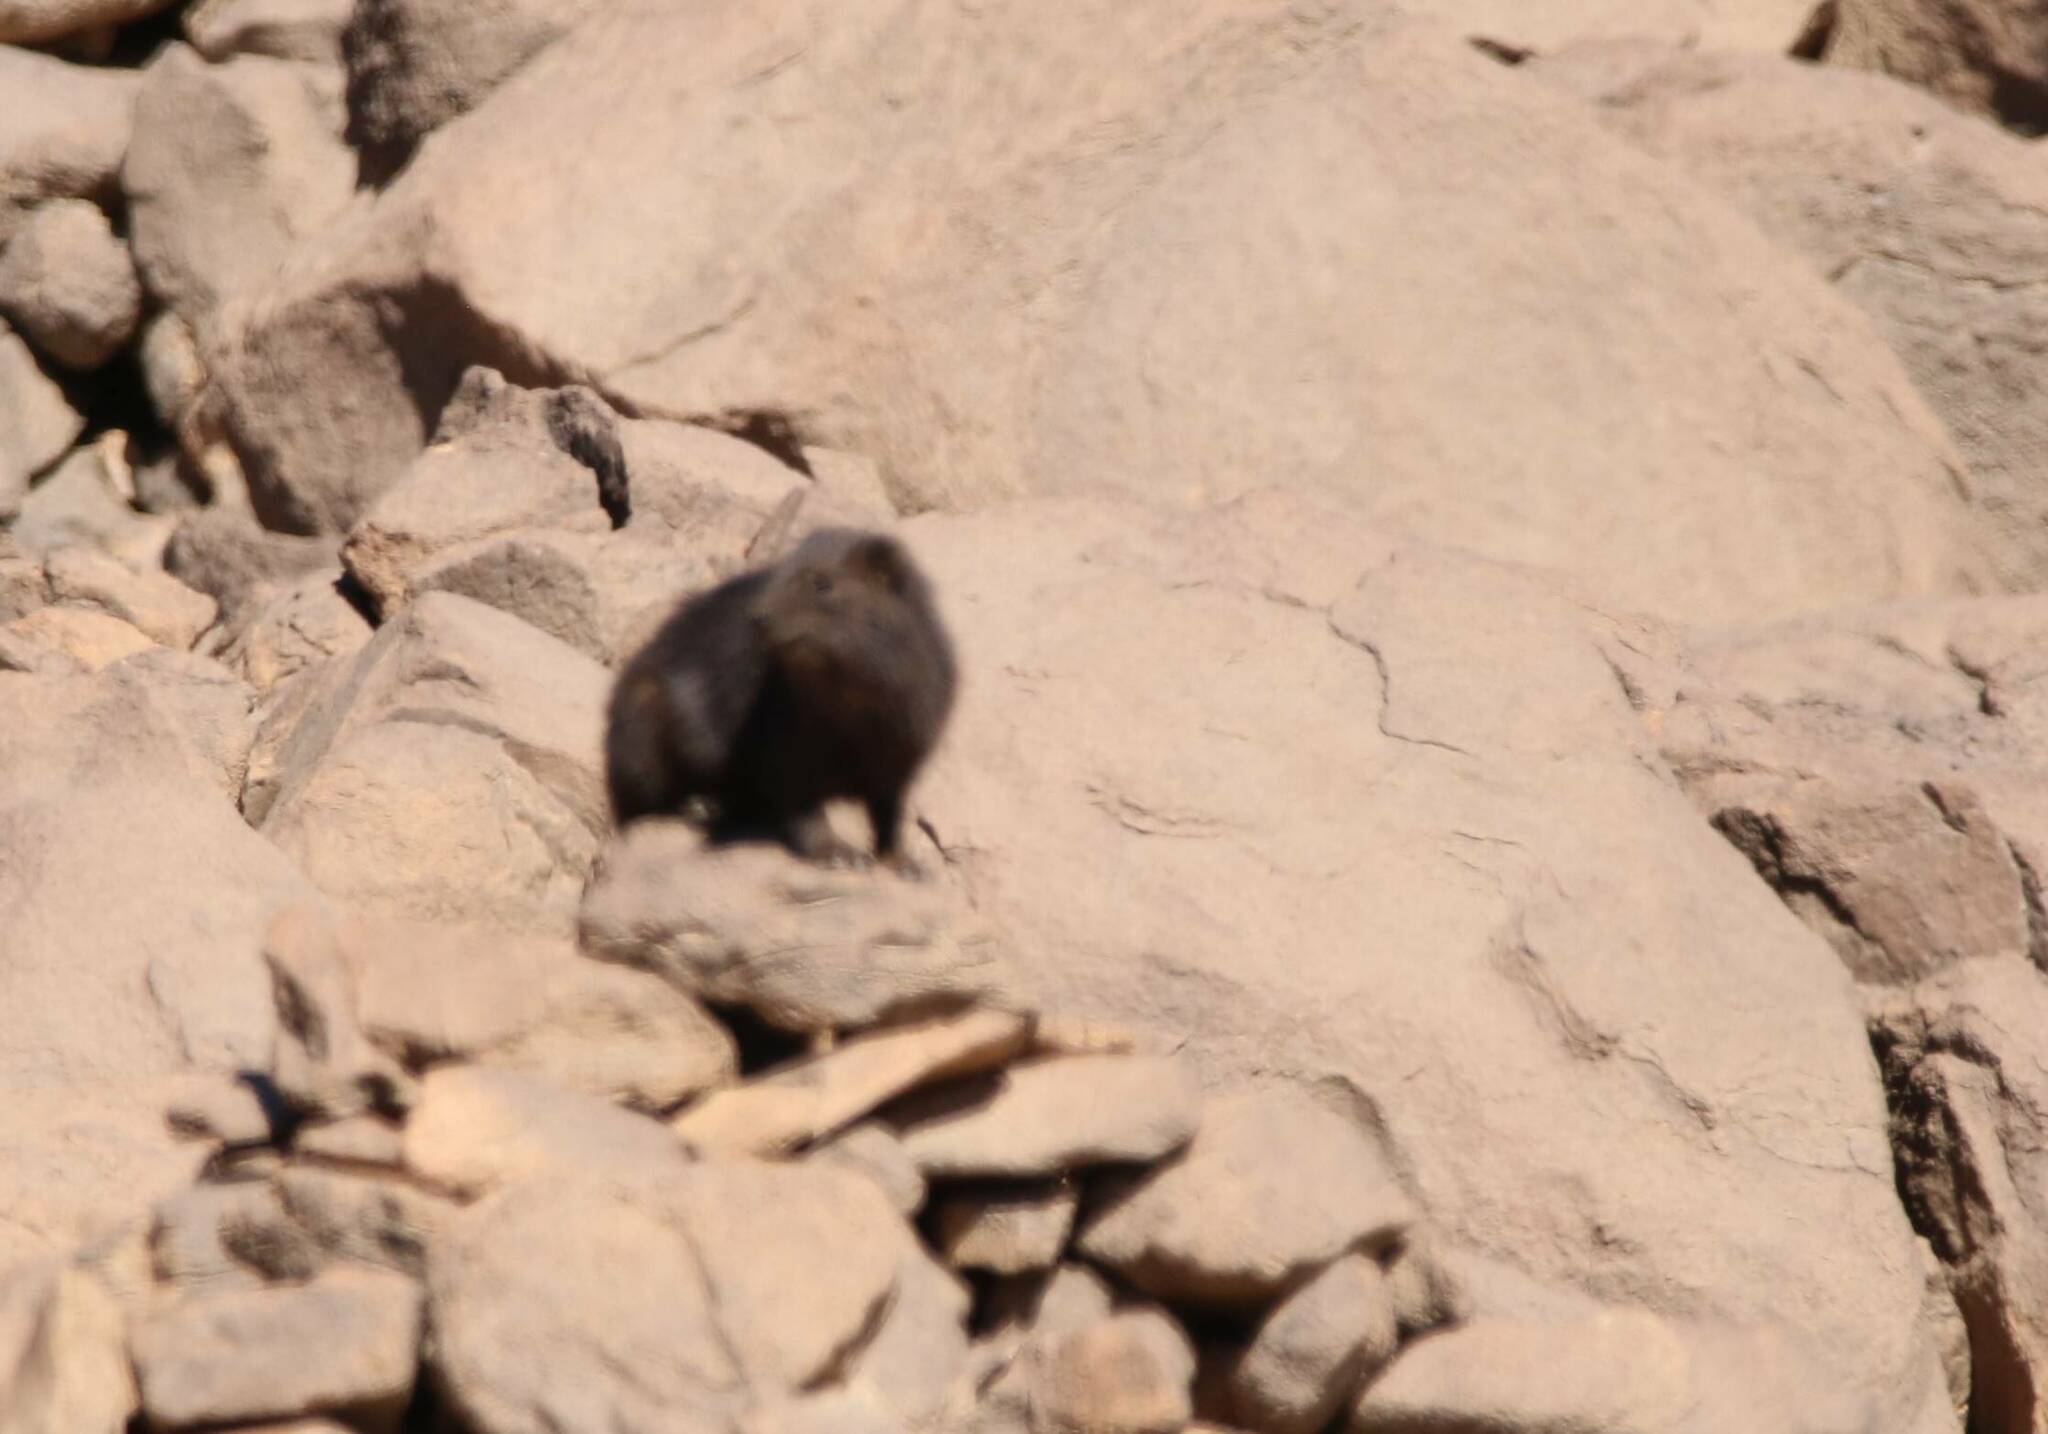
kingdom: Animalia
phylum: Chordata
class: Mammalia
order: Hyracoidea
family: Procaviidae
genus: Procavia
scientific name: Procavia capensis
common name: Rock hyrax
